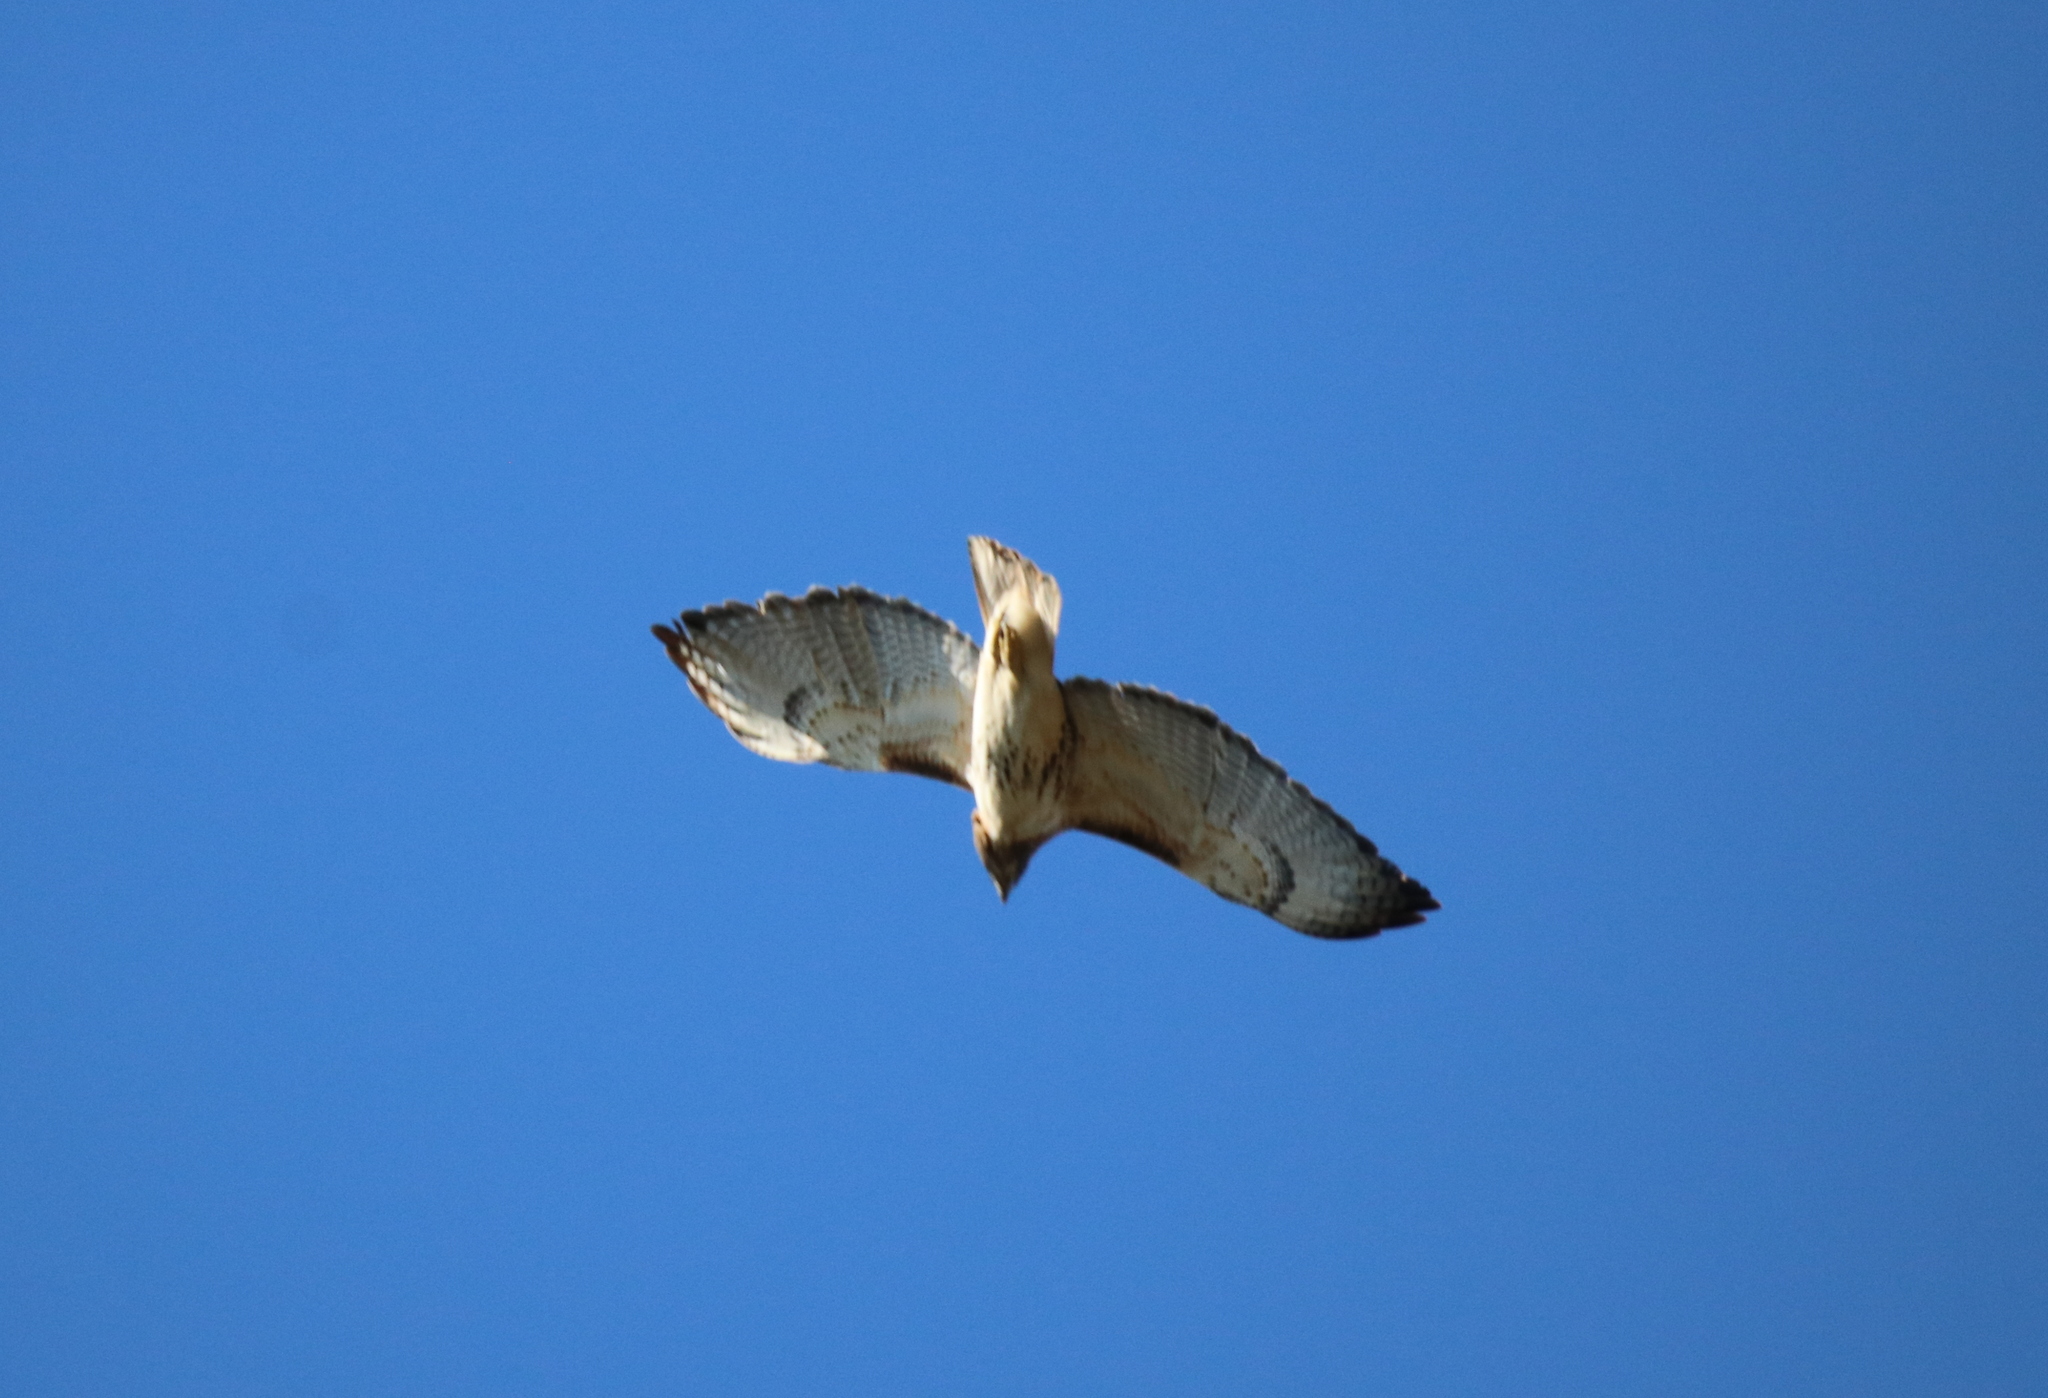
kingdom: Animalia
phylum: Chordata
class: Aves
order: Accipitriformes
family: Accipitridae
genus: Buteo
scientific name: Buteo jamaicensis
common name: Red-tailed hawk
